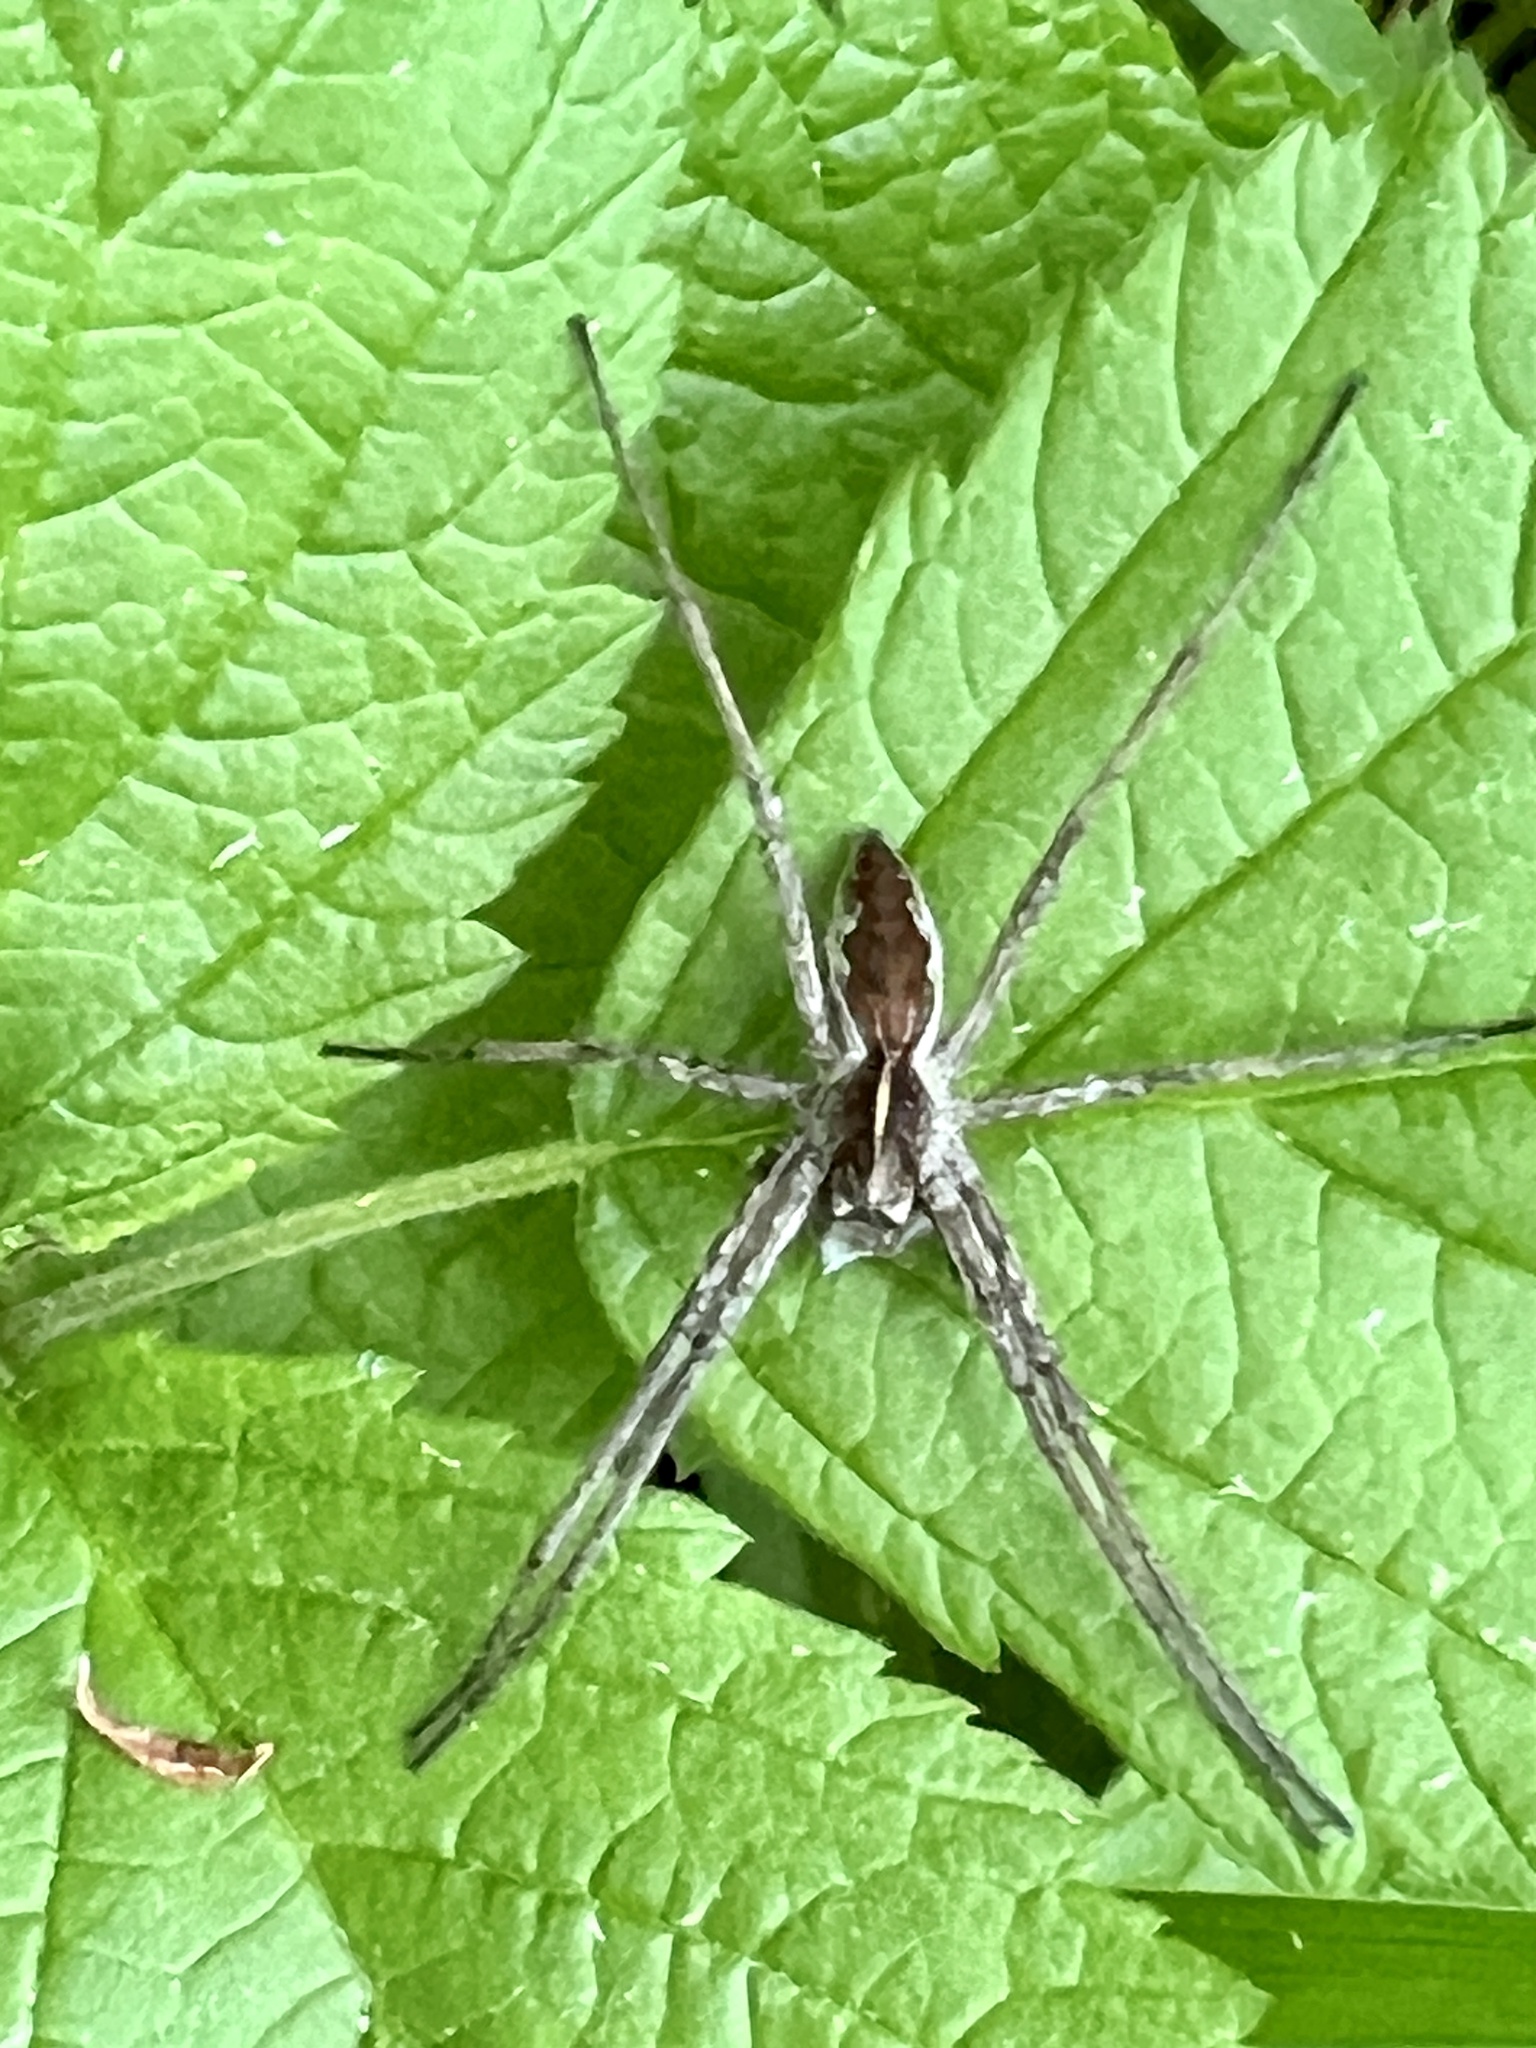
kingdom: Animalia
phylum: Arthropoda
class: Arachnida
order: Araneae
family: Pisauridae
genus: Pisaura
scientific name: Pisaura mirabilis
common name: Tent spider
